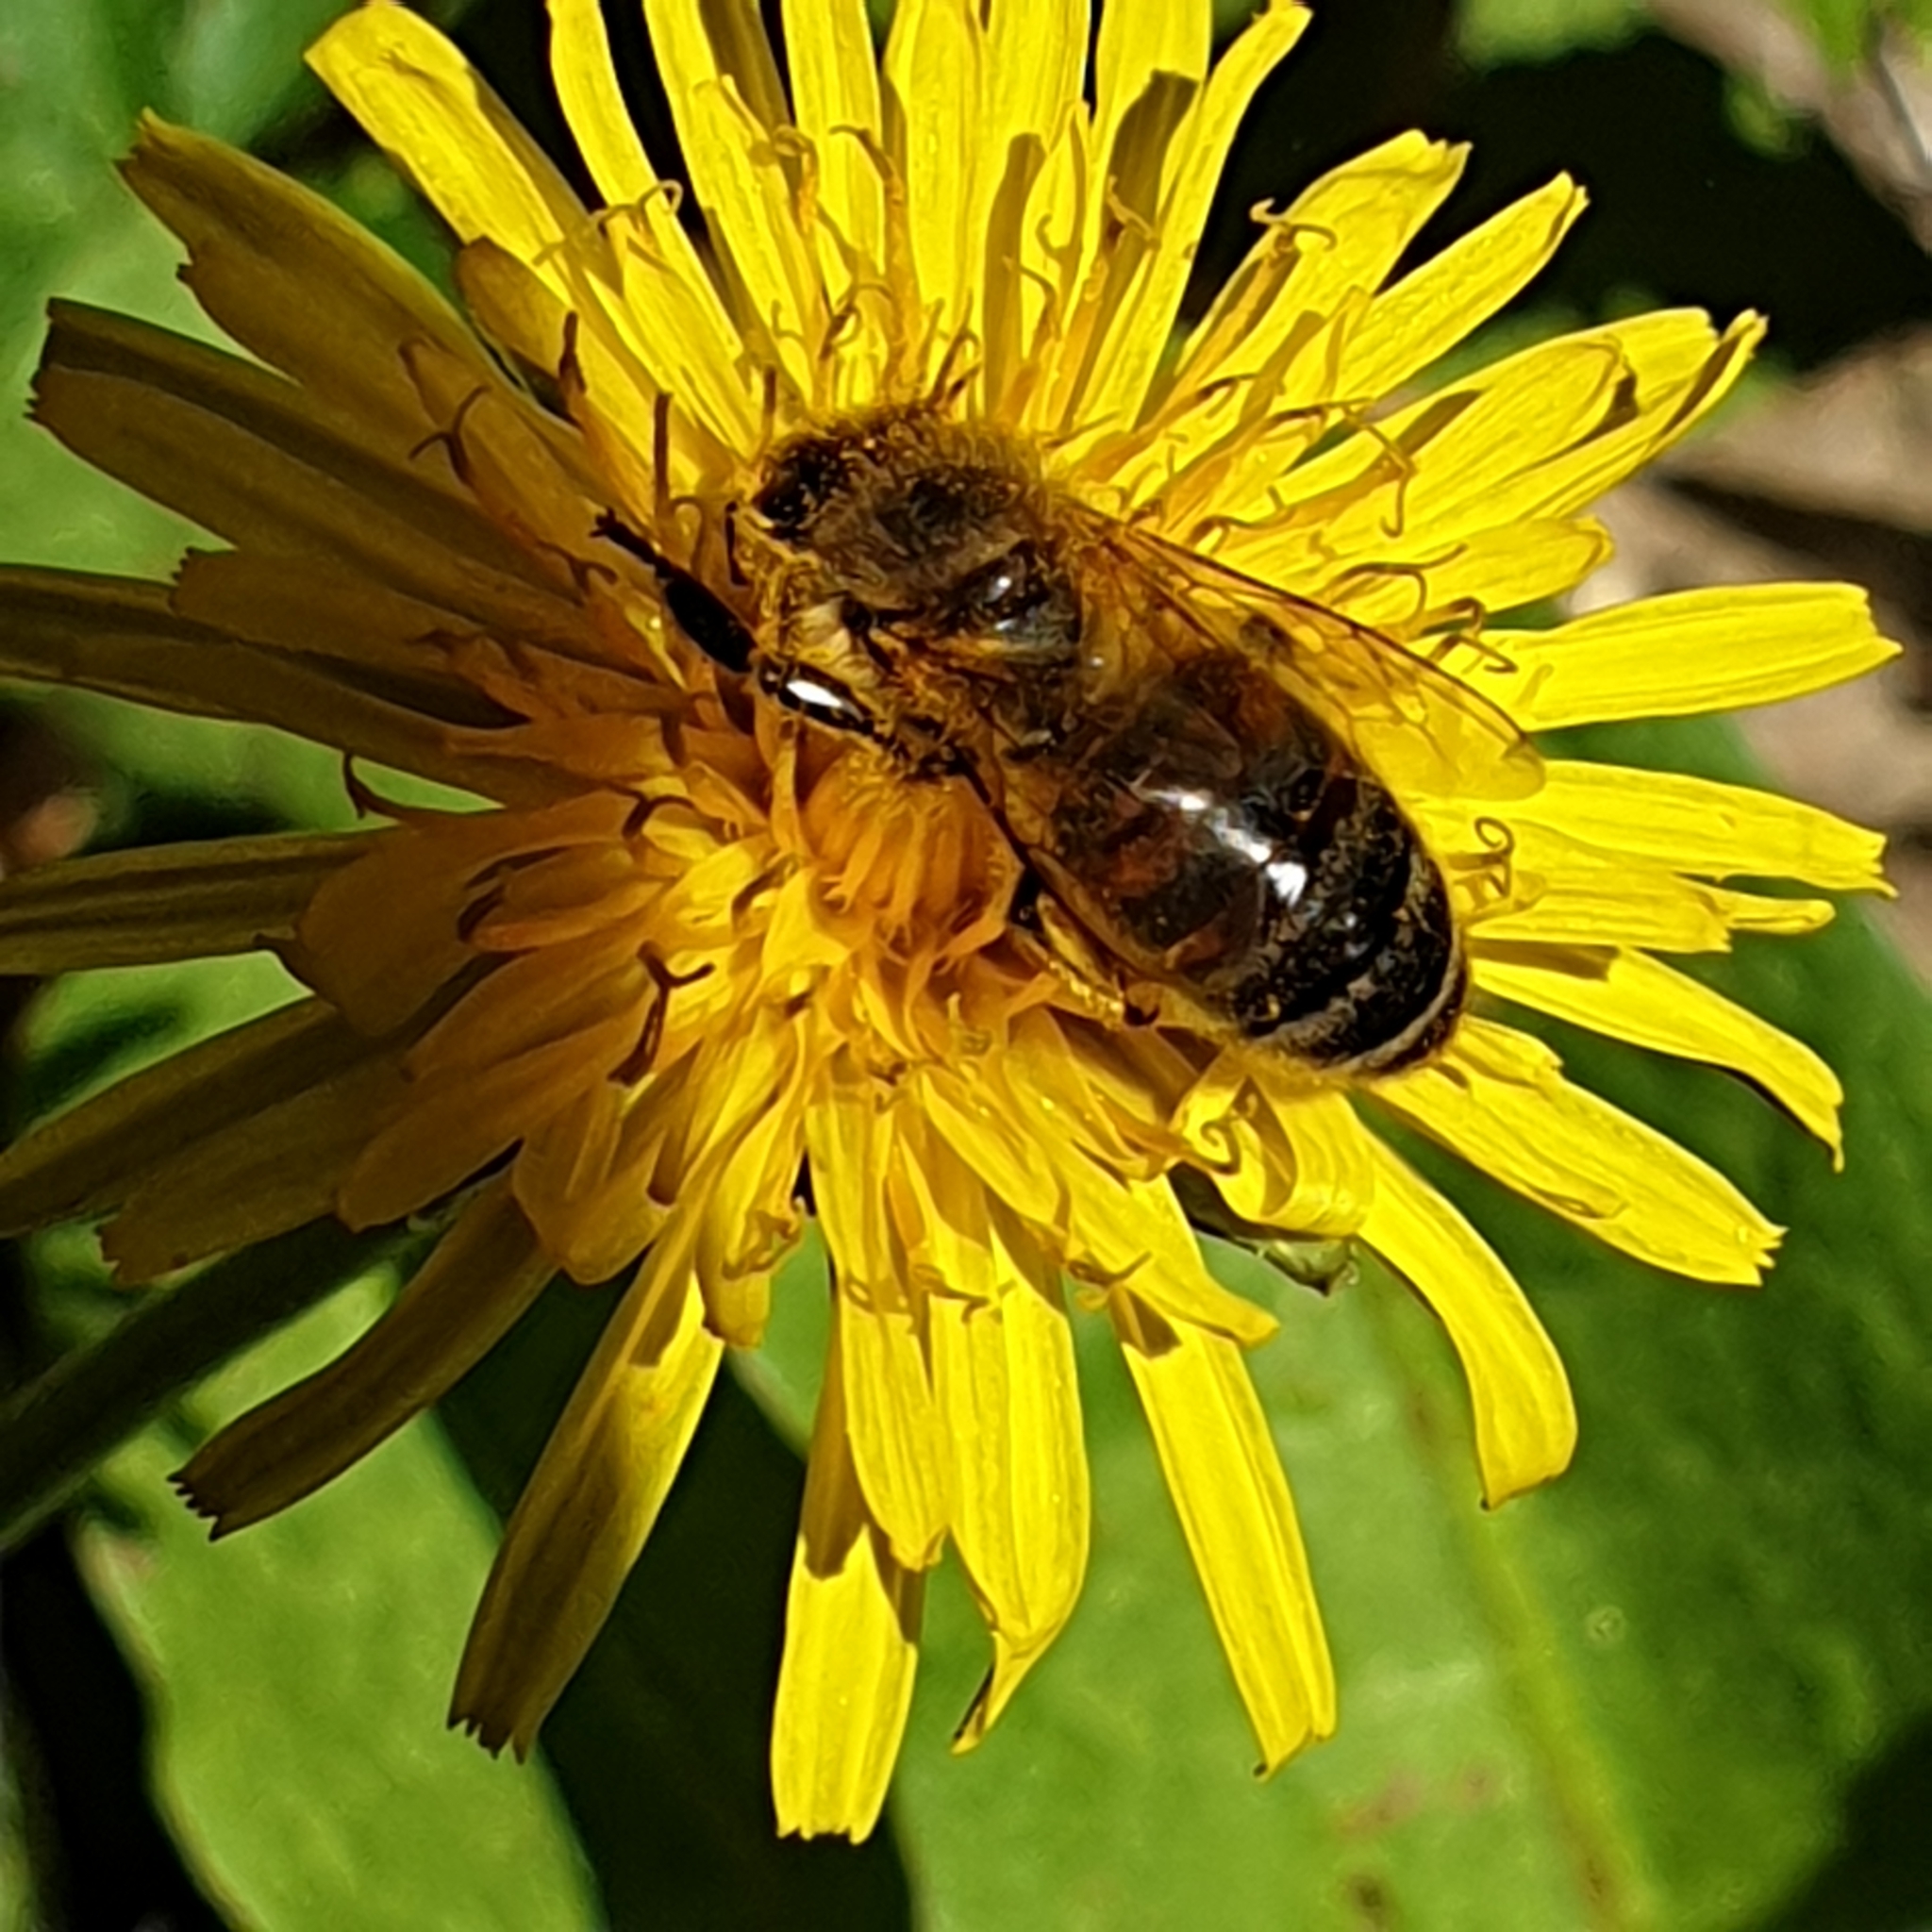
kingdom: Animalia
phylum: Arthropoda
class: Insecta
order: Hymenoptera
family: Apidae
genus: Apis
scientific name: Apis mellifera
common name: Honey bee
